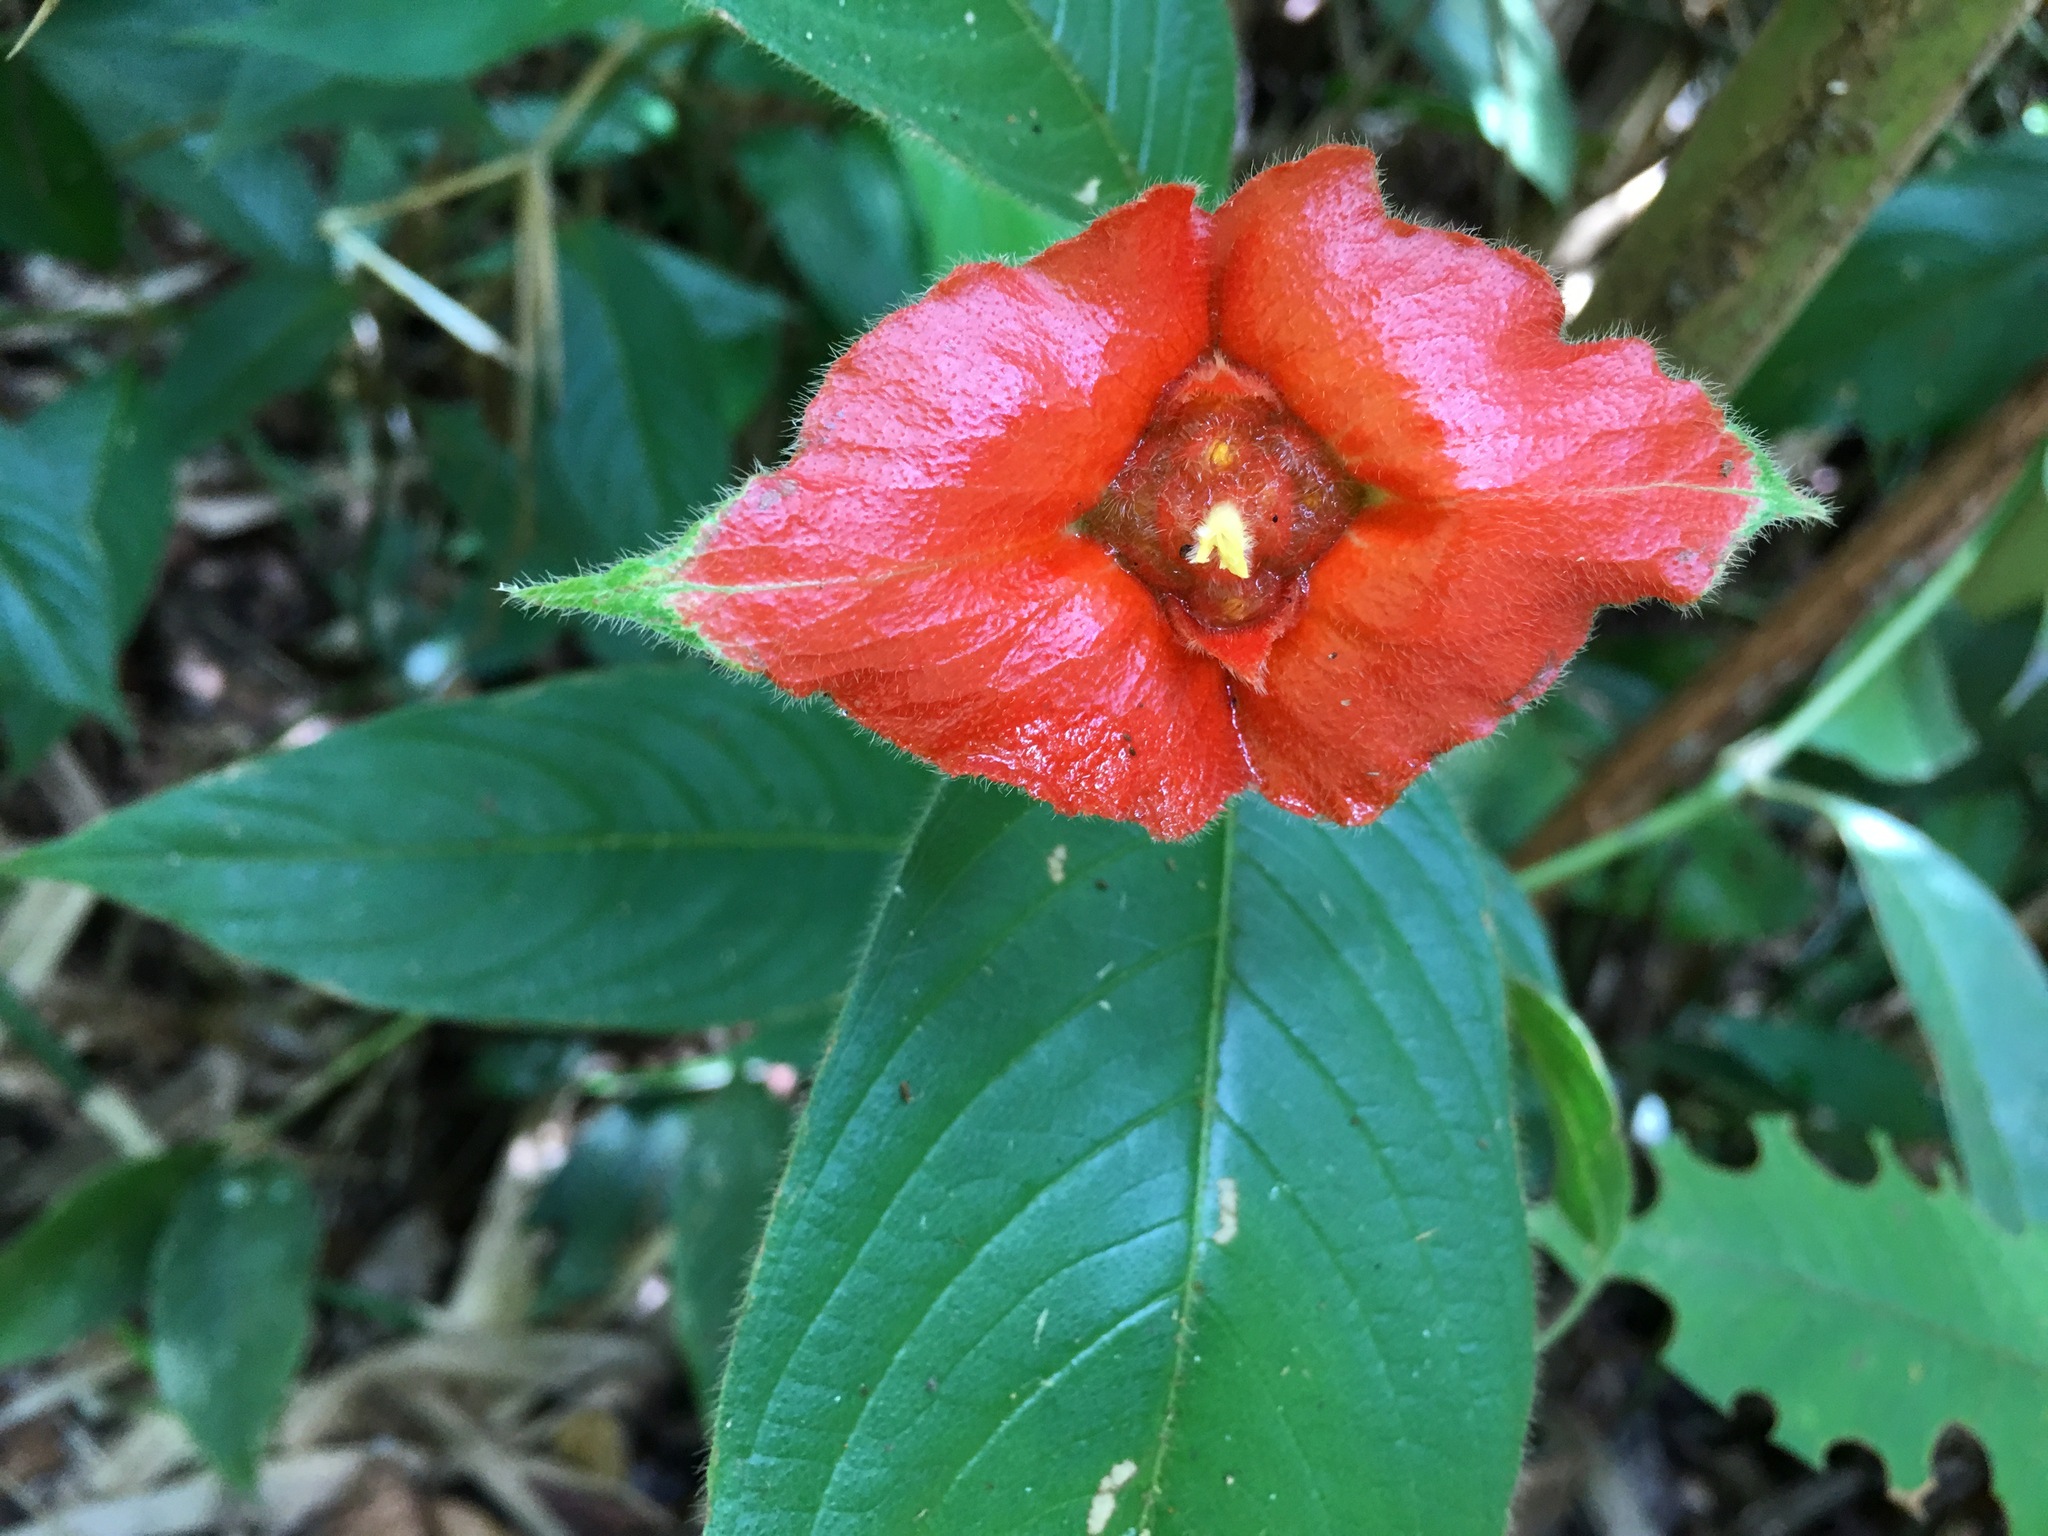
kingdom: Plantae
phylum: Tracheophyta
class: Magnoliopsida
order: Gentianales
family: Rubiaceae
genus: Palicourea
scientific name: Palicourea tomentosa
